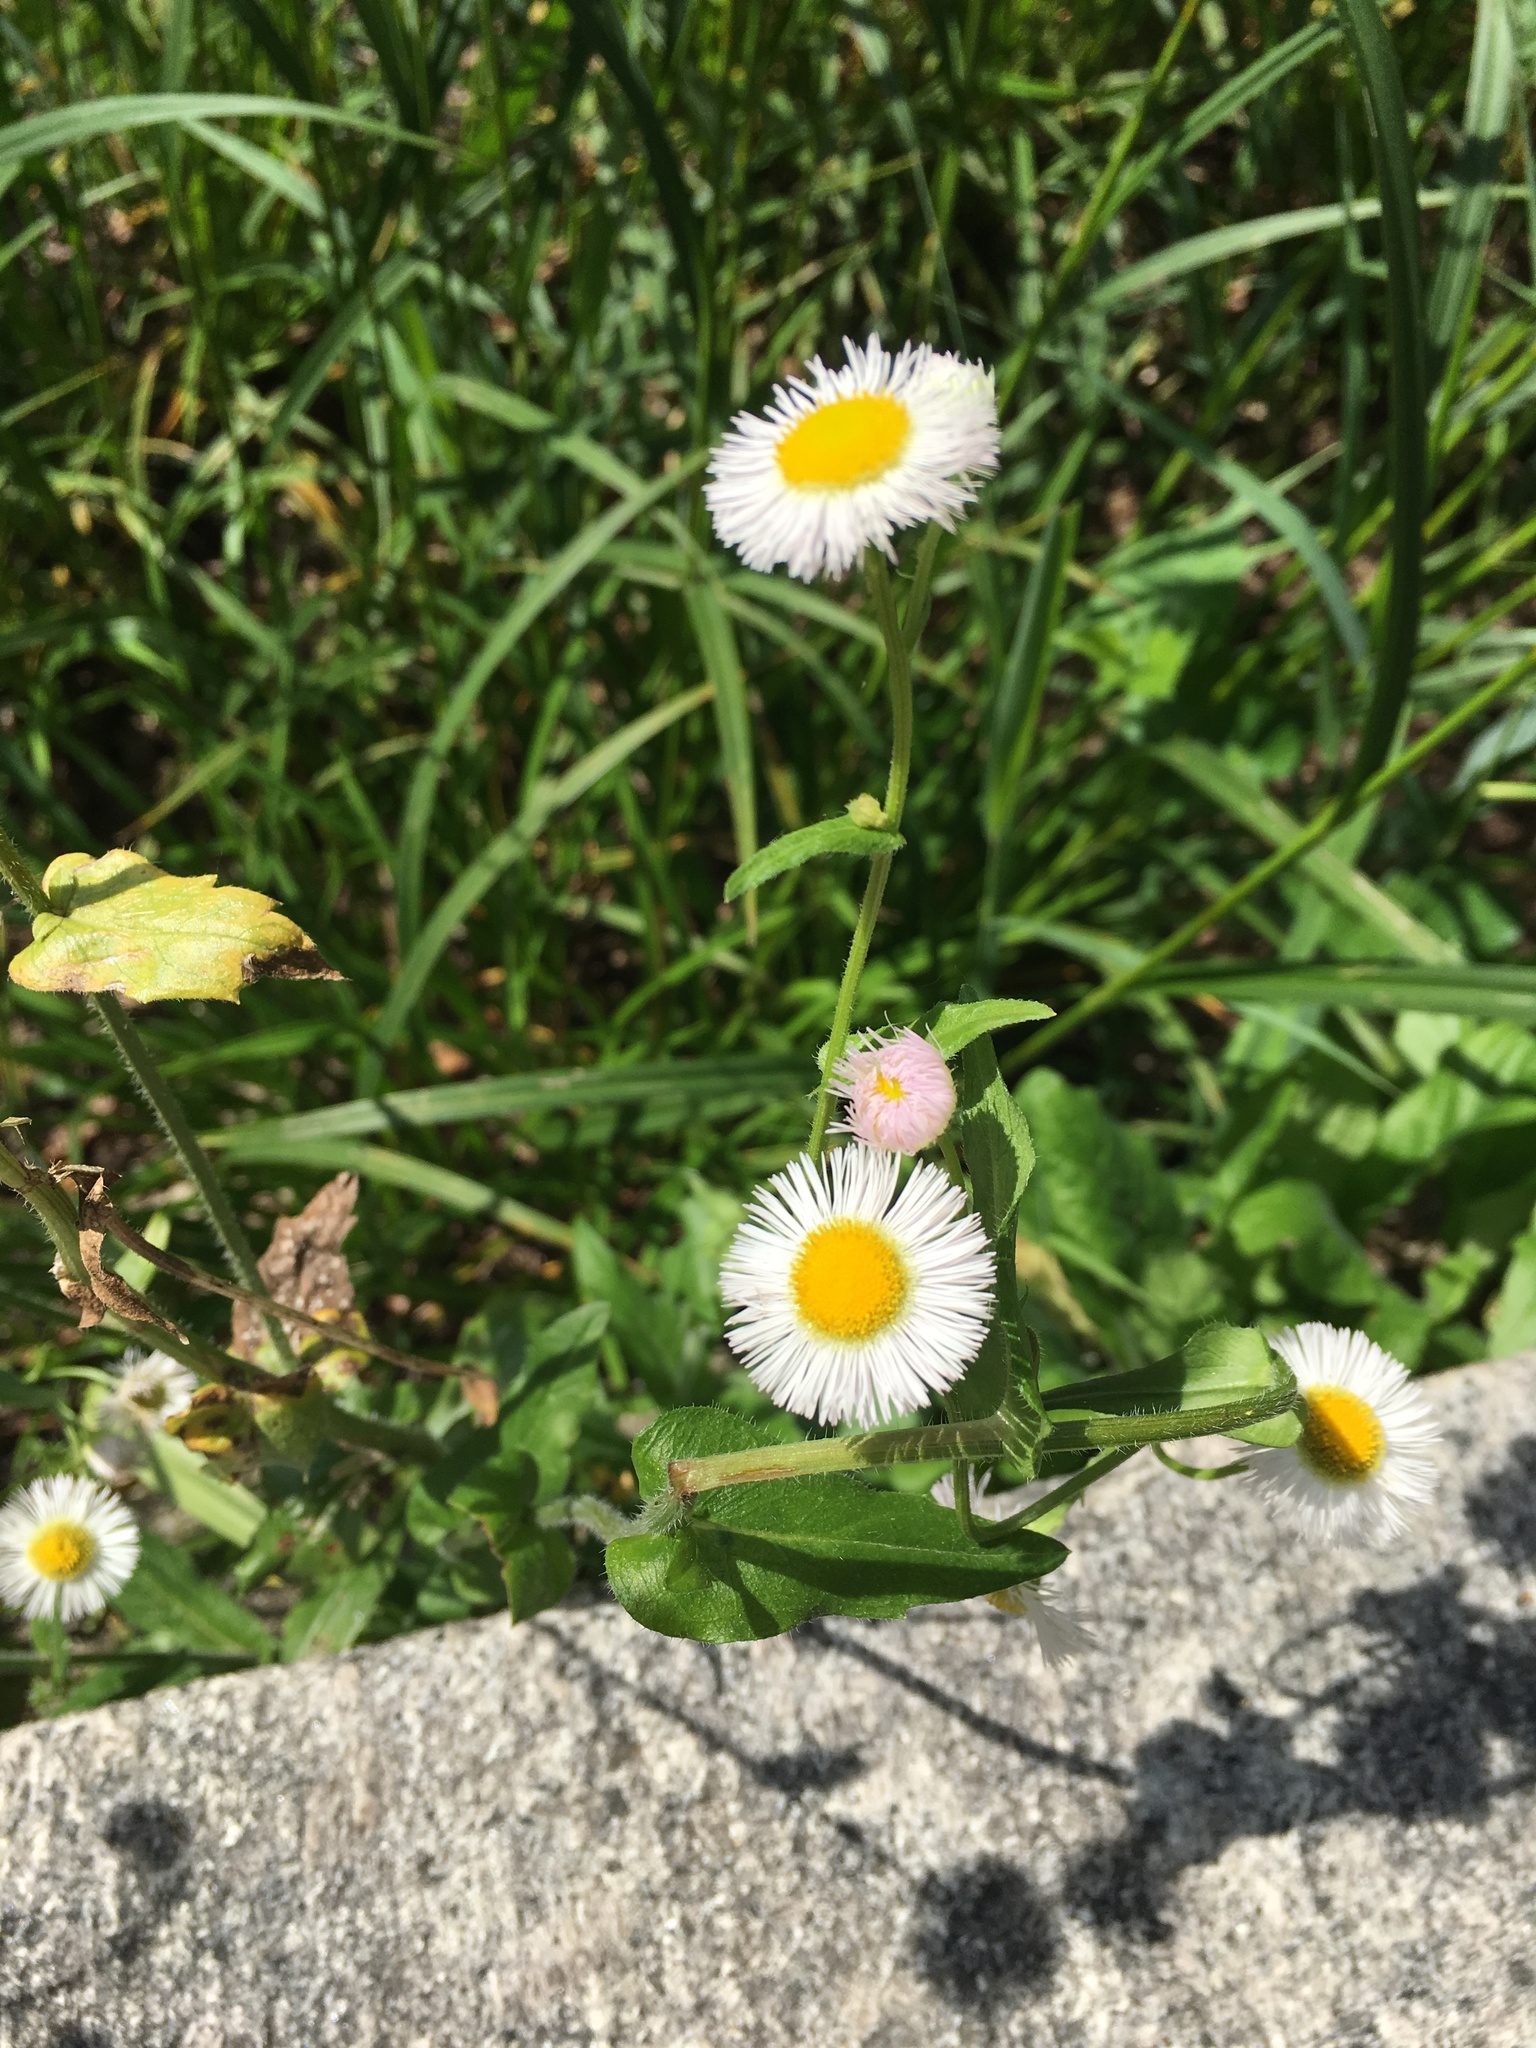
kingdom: Plantae
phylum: Tracheophyta
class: Magnoliopsida
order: Asterales
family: Asteraceae
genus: Erigeron
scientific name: Erigeron philadelphicus
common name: Robin's-plantain
